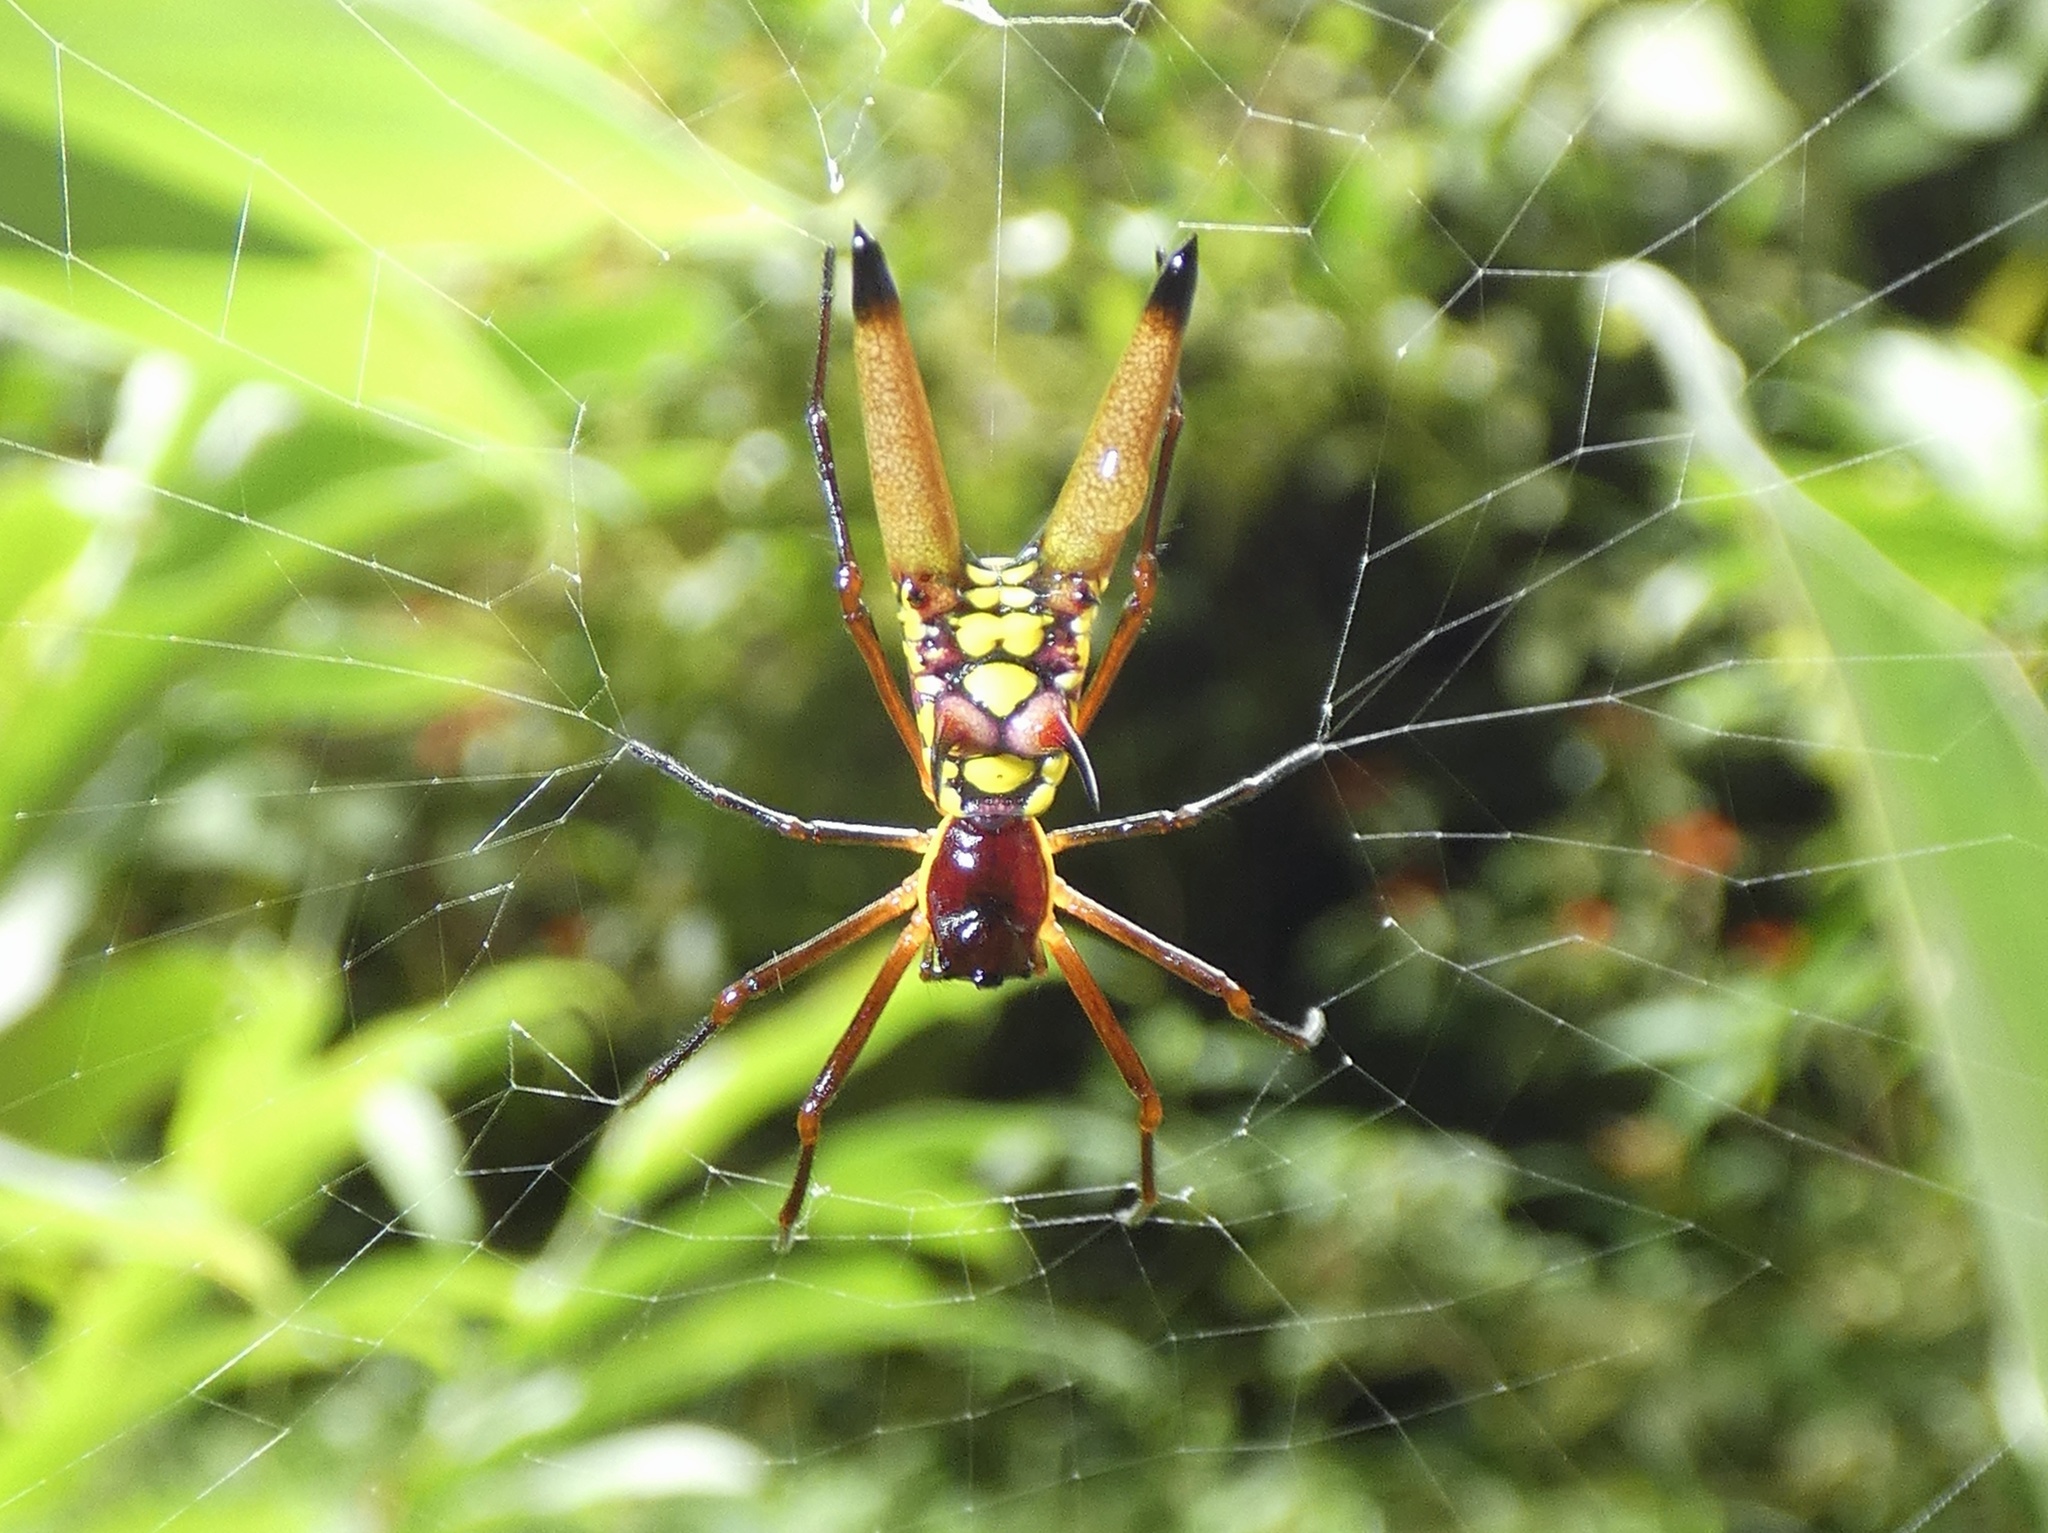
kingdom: Animalia
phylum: Arthropoda
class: Arachnida
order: Araneae
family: Araneidae
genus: Micrathena
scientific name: Micrathena brevipes
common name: Orb weavers
